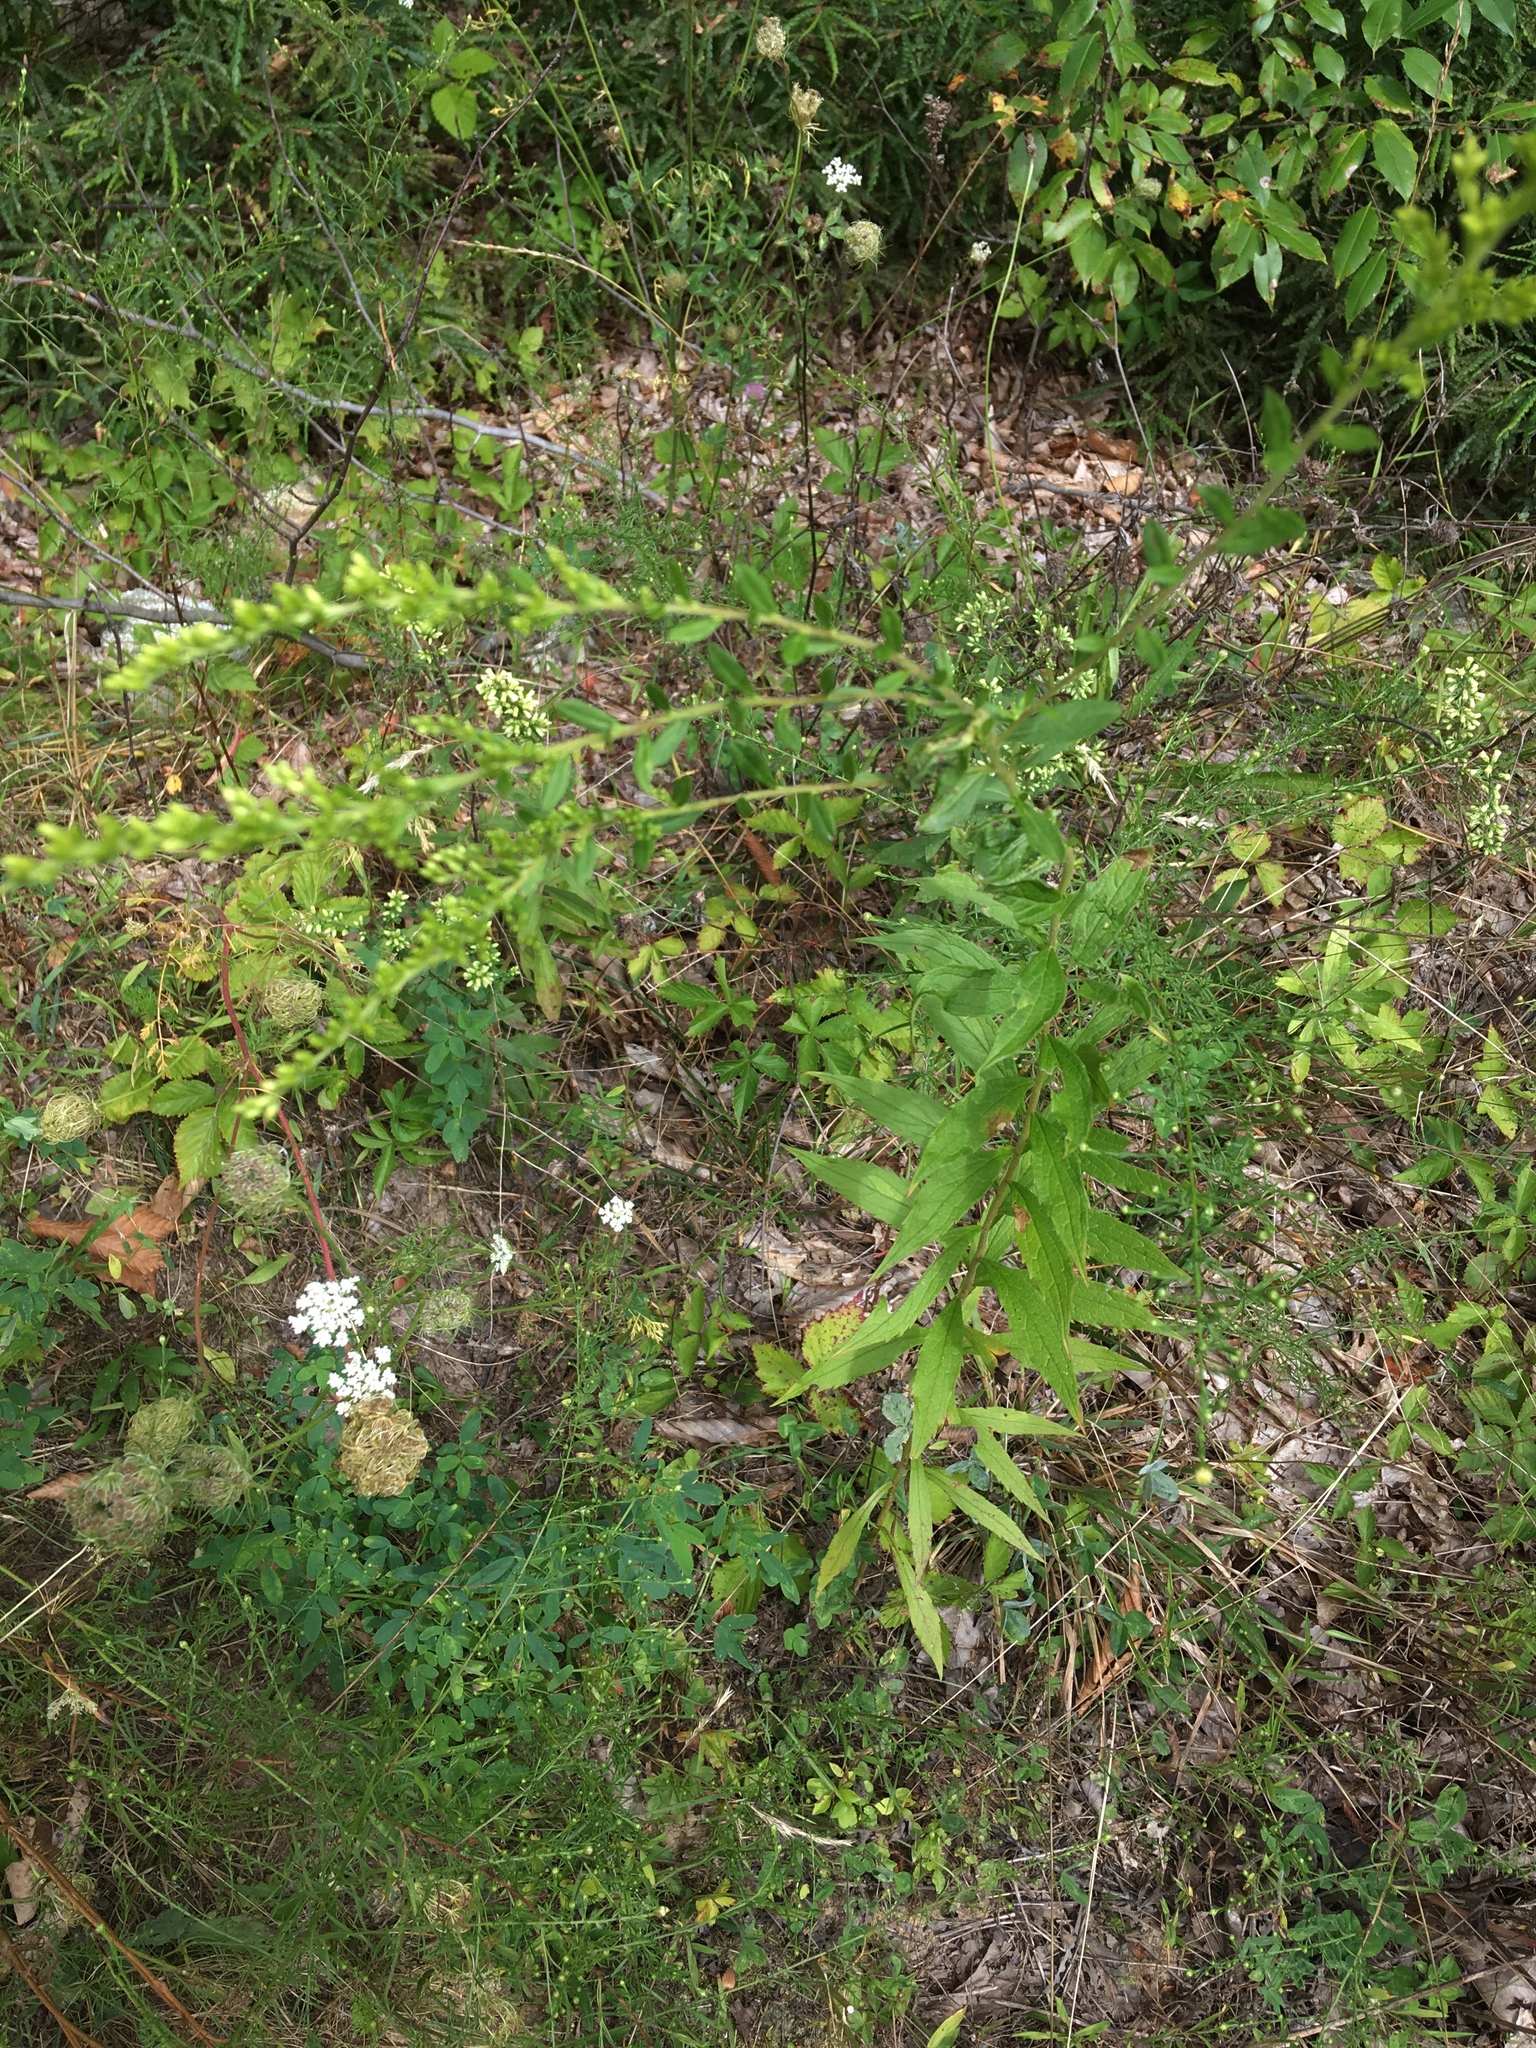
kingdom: Plantae
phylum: Tracheophyta
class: Magnoliopsida
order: Asterales
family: Asteraceae
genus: Solidago
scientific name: Solidago bicolor
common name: Silverrod
